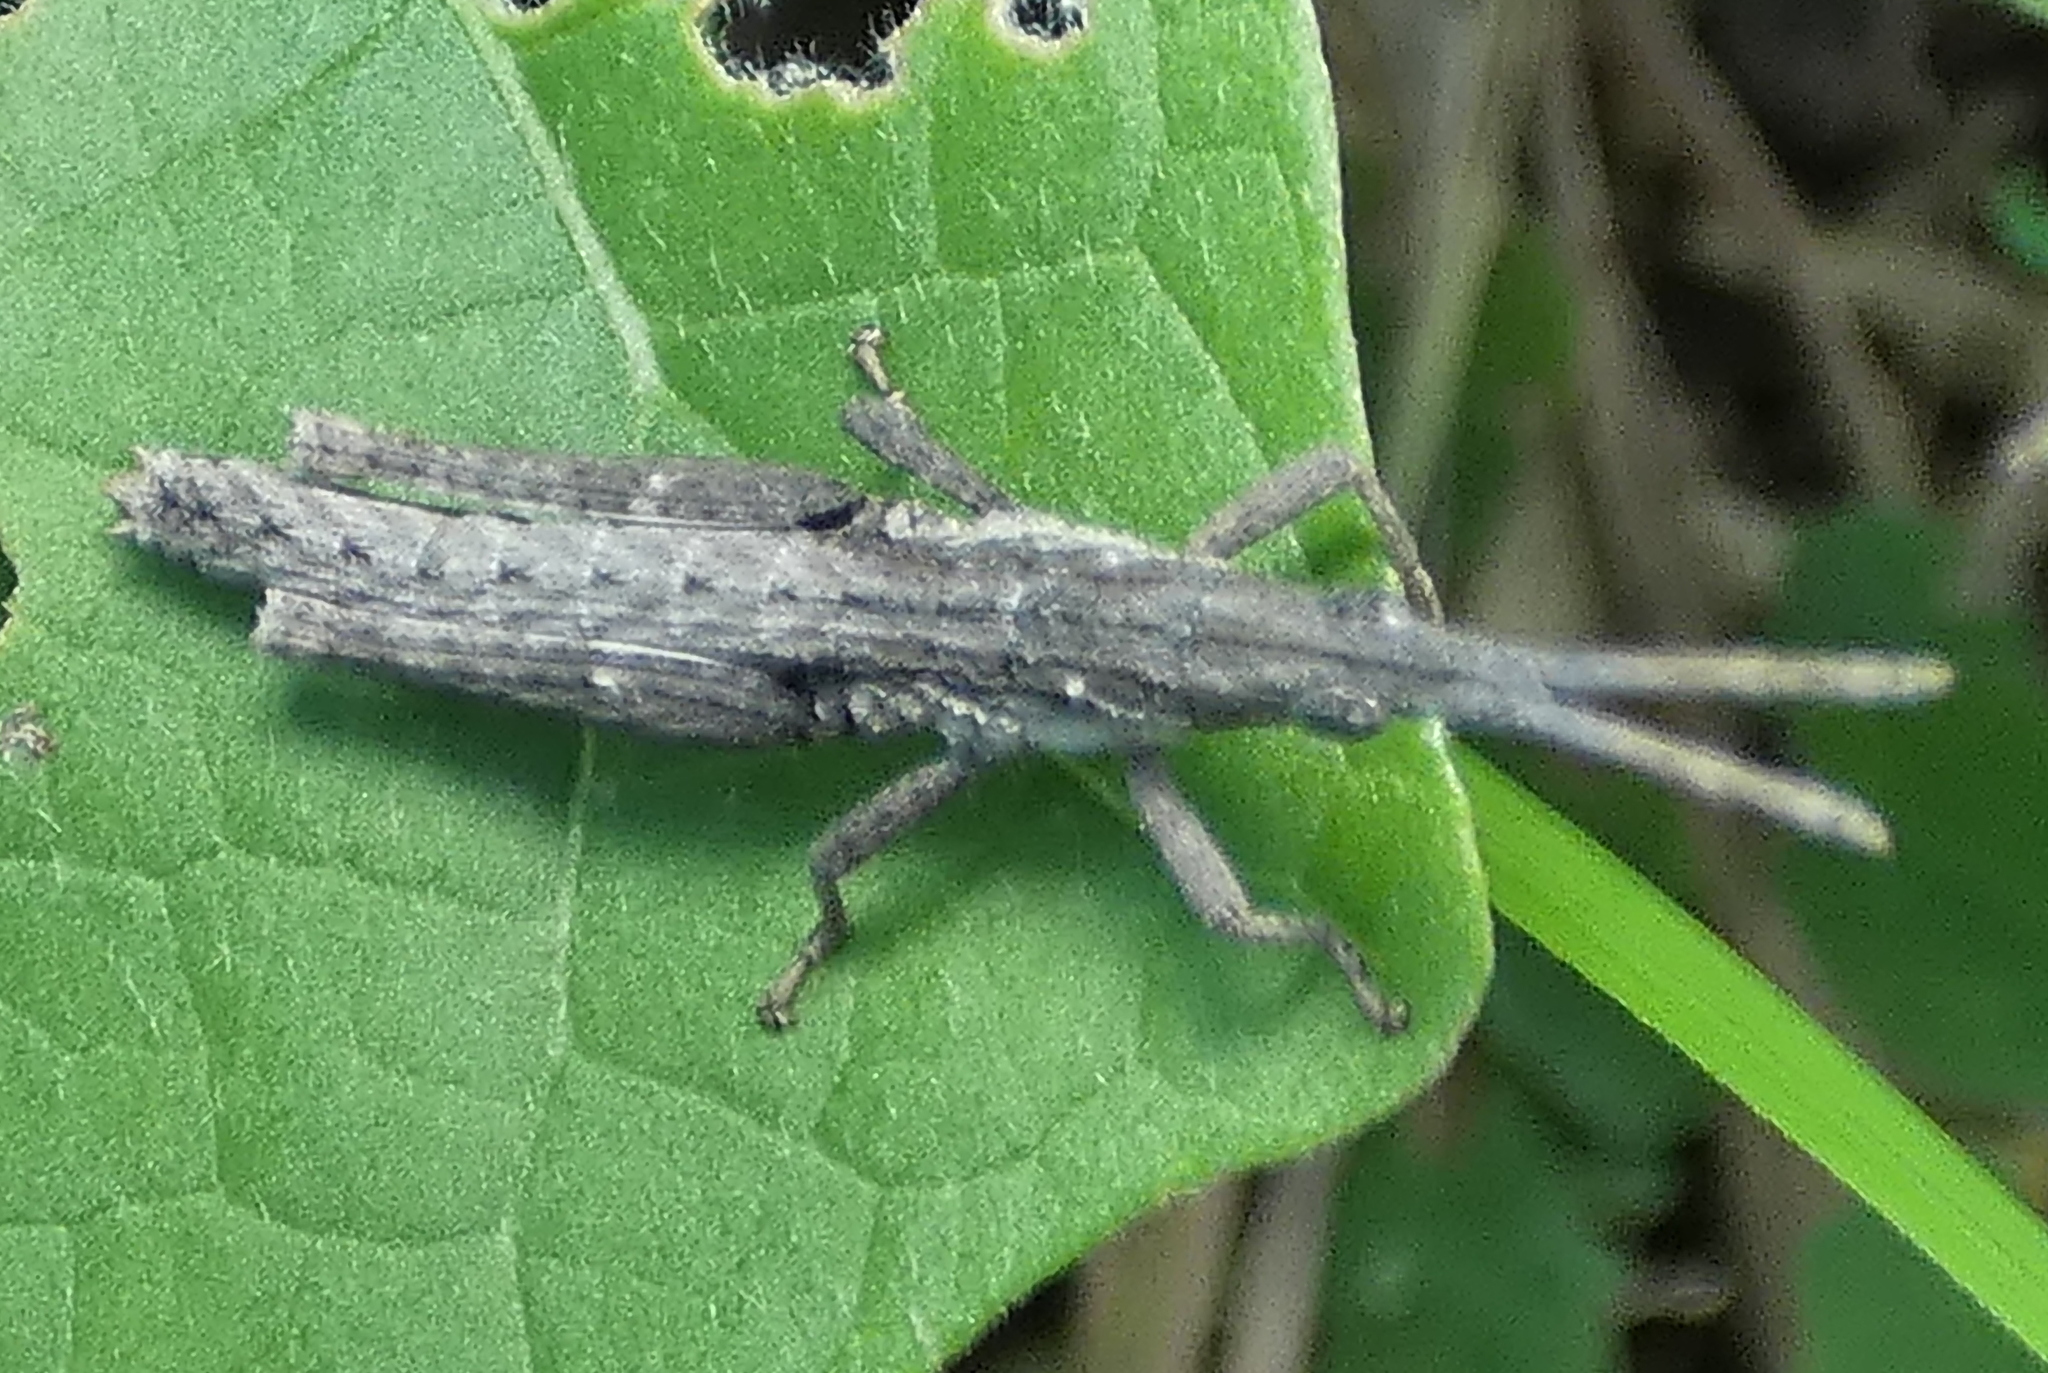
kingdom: Animalia
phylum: Arthropoda
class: Insecta
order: Orthoptera
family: Pyrgomorphidae
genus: Algete
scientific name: Algete brunneri
